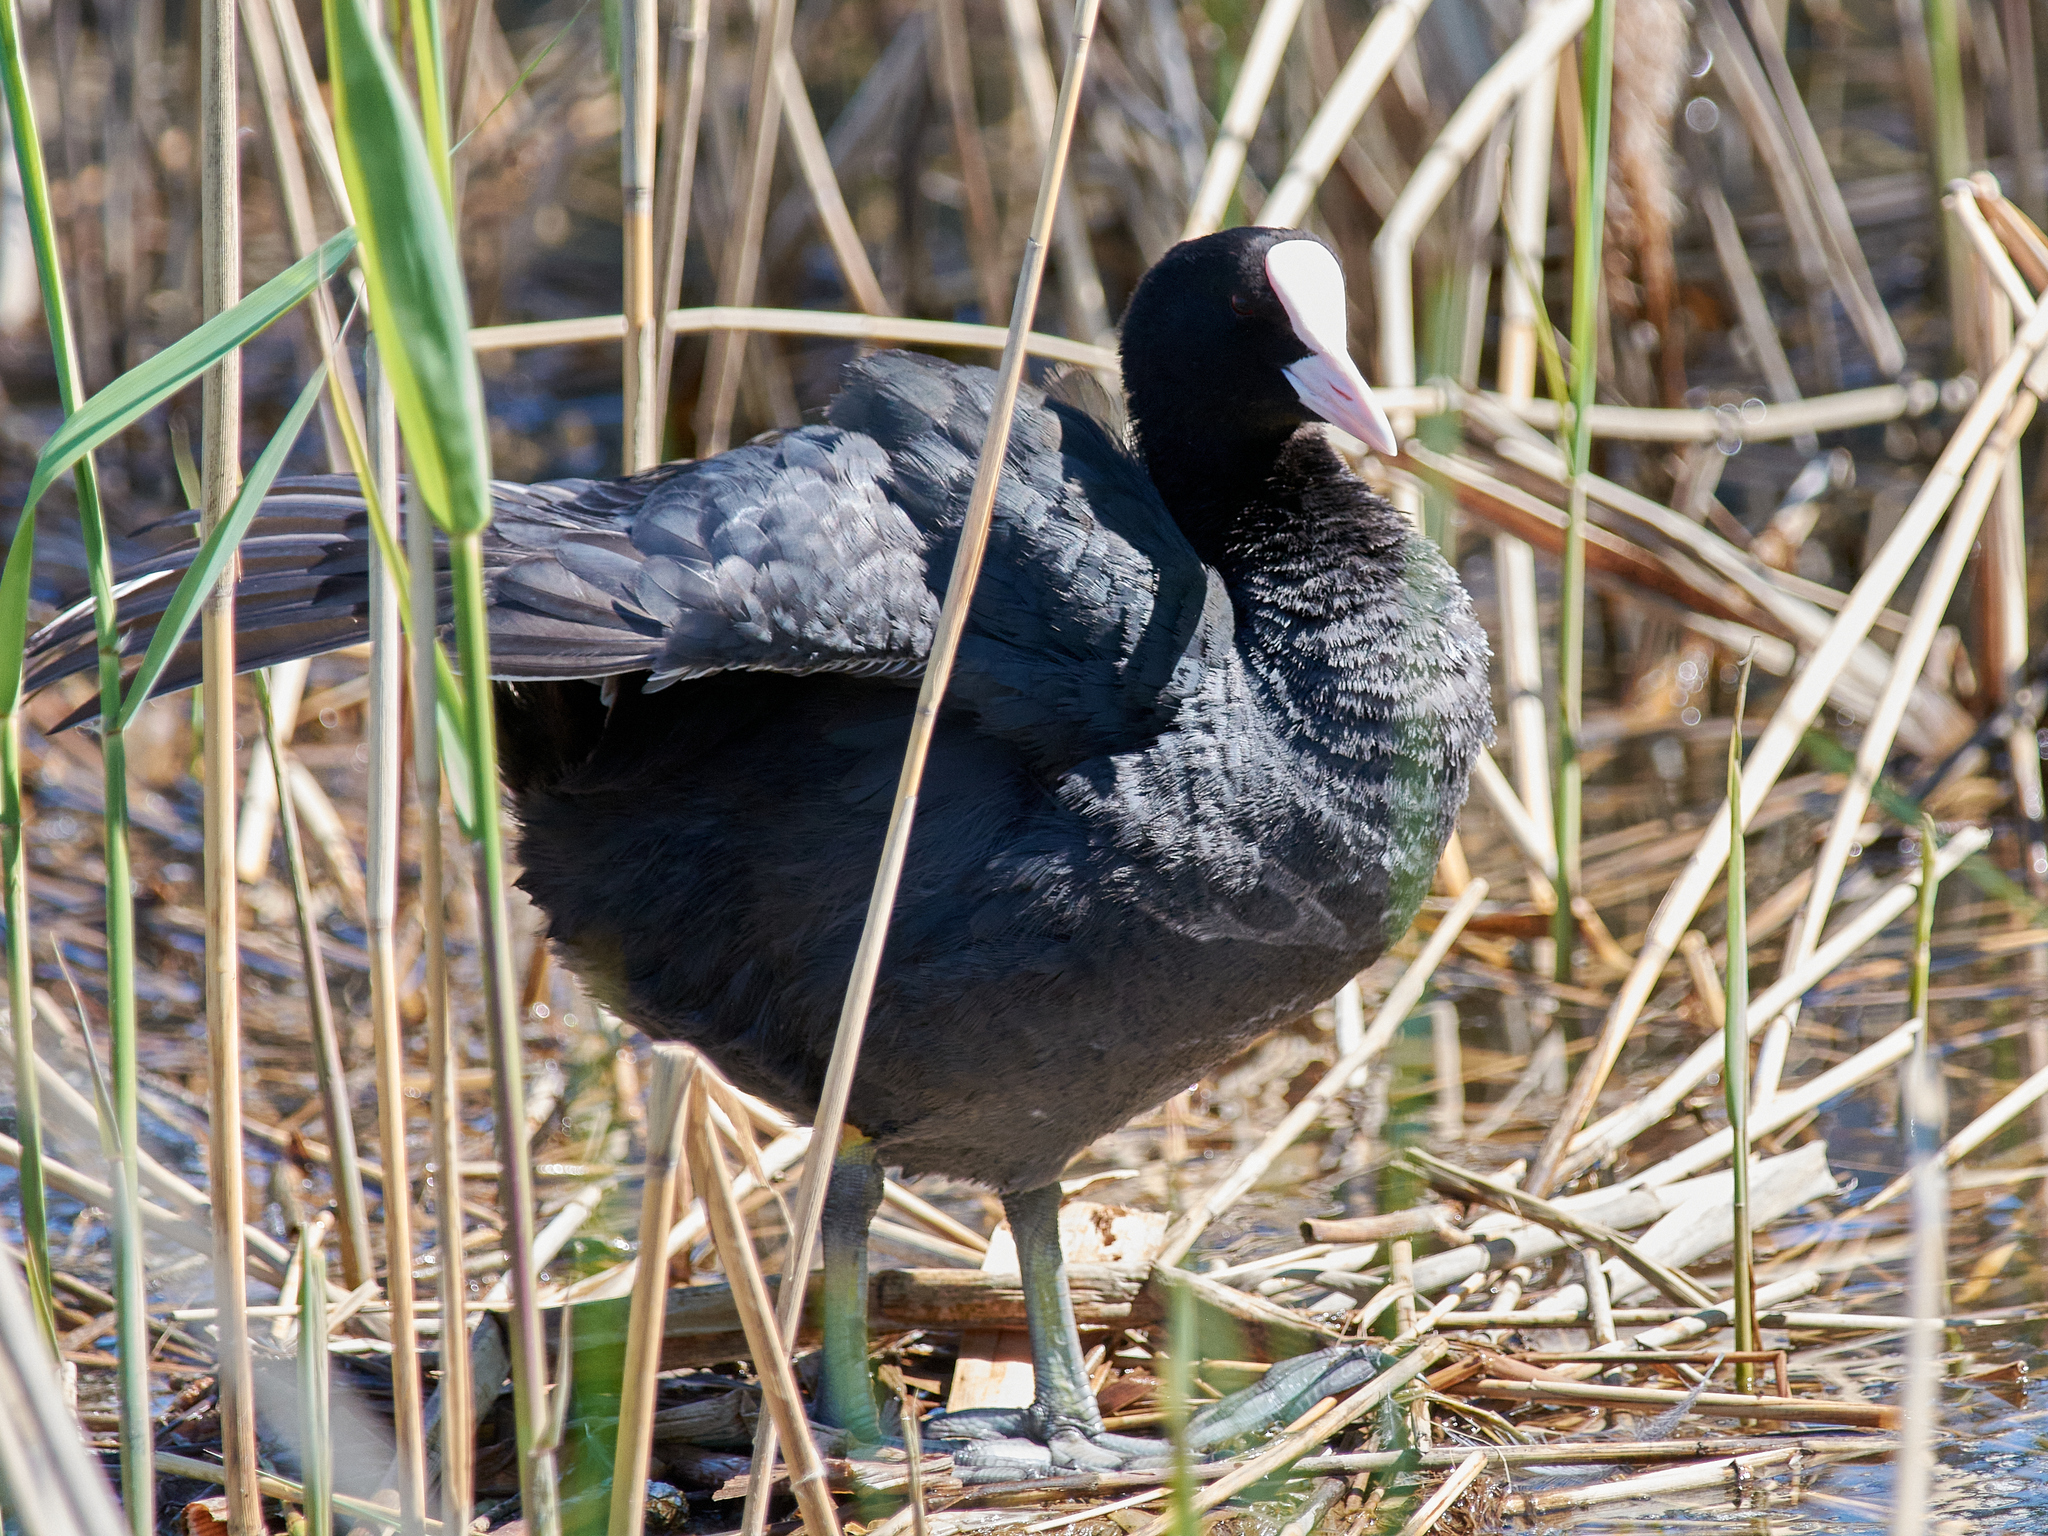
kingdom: Animalia
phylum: Chordata
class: Aves
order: Gruiformes
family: Rallidae
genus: Fulica
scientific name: Fulica atra
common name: Eurasian coot
